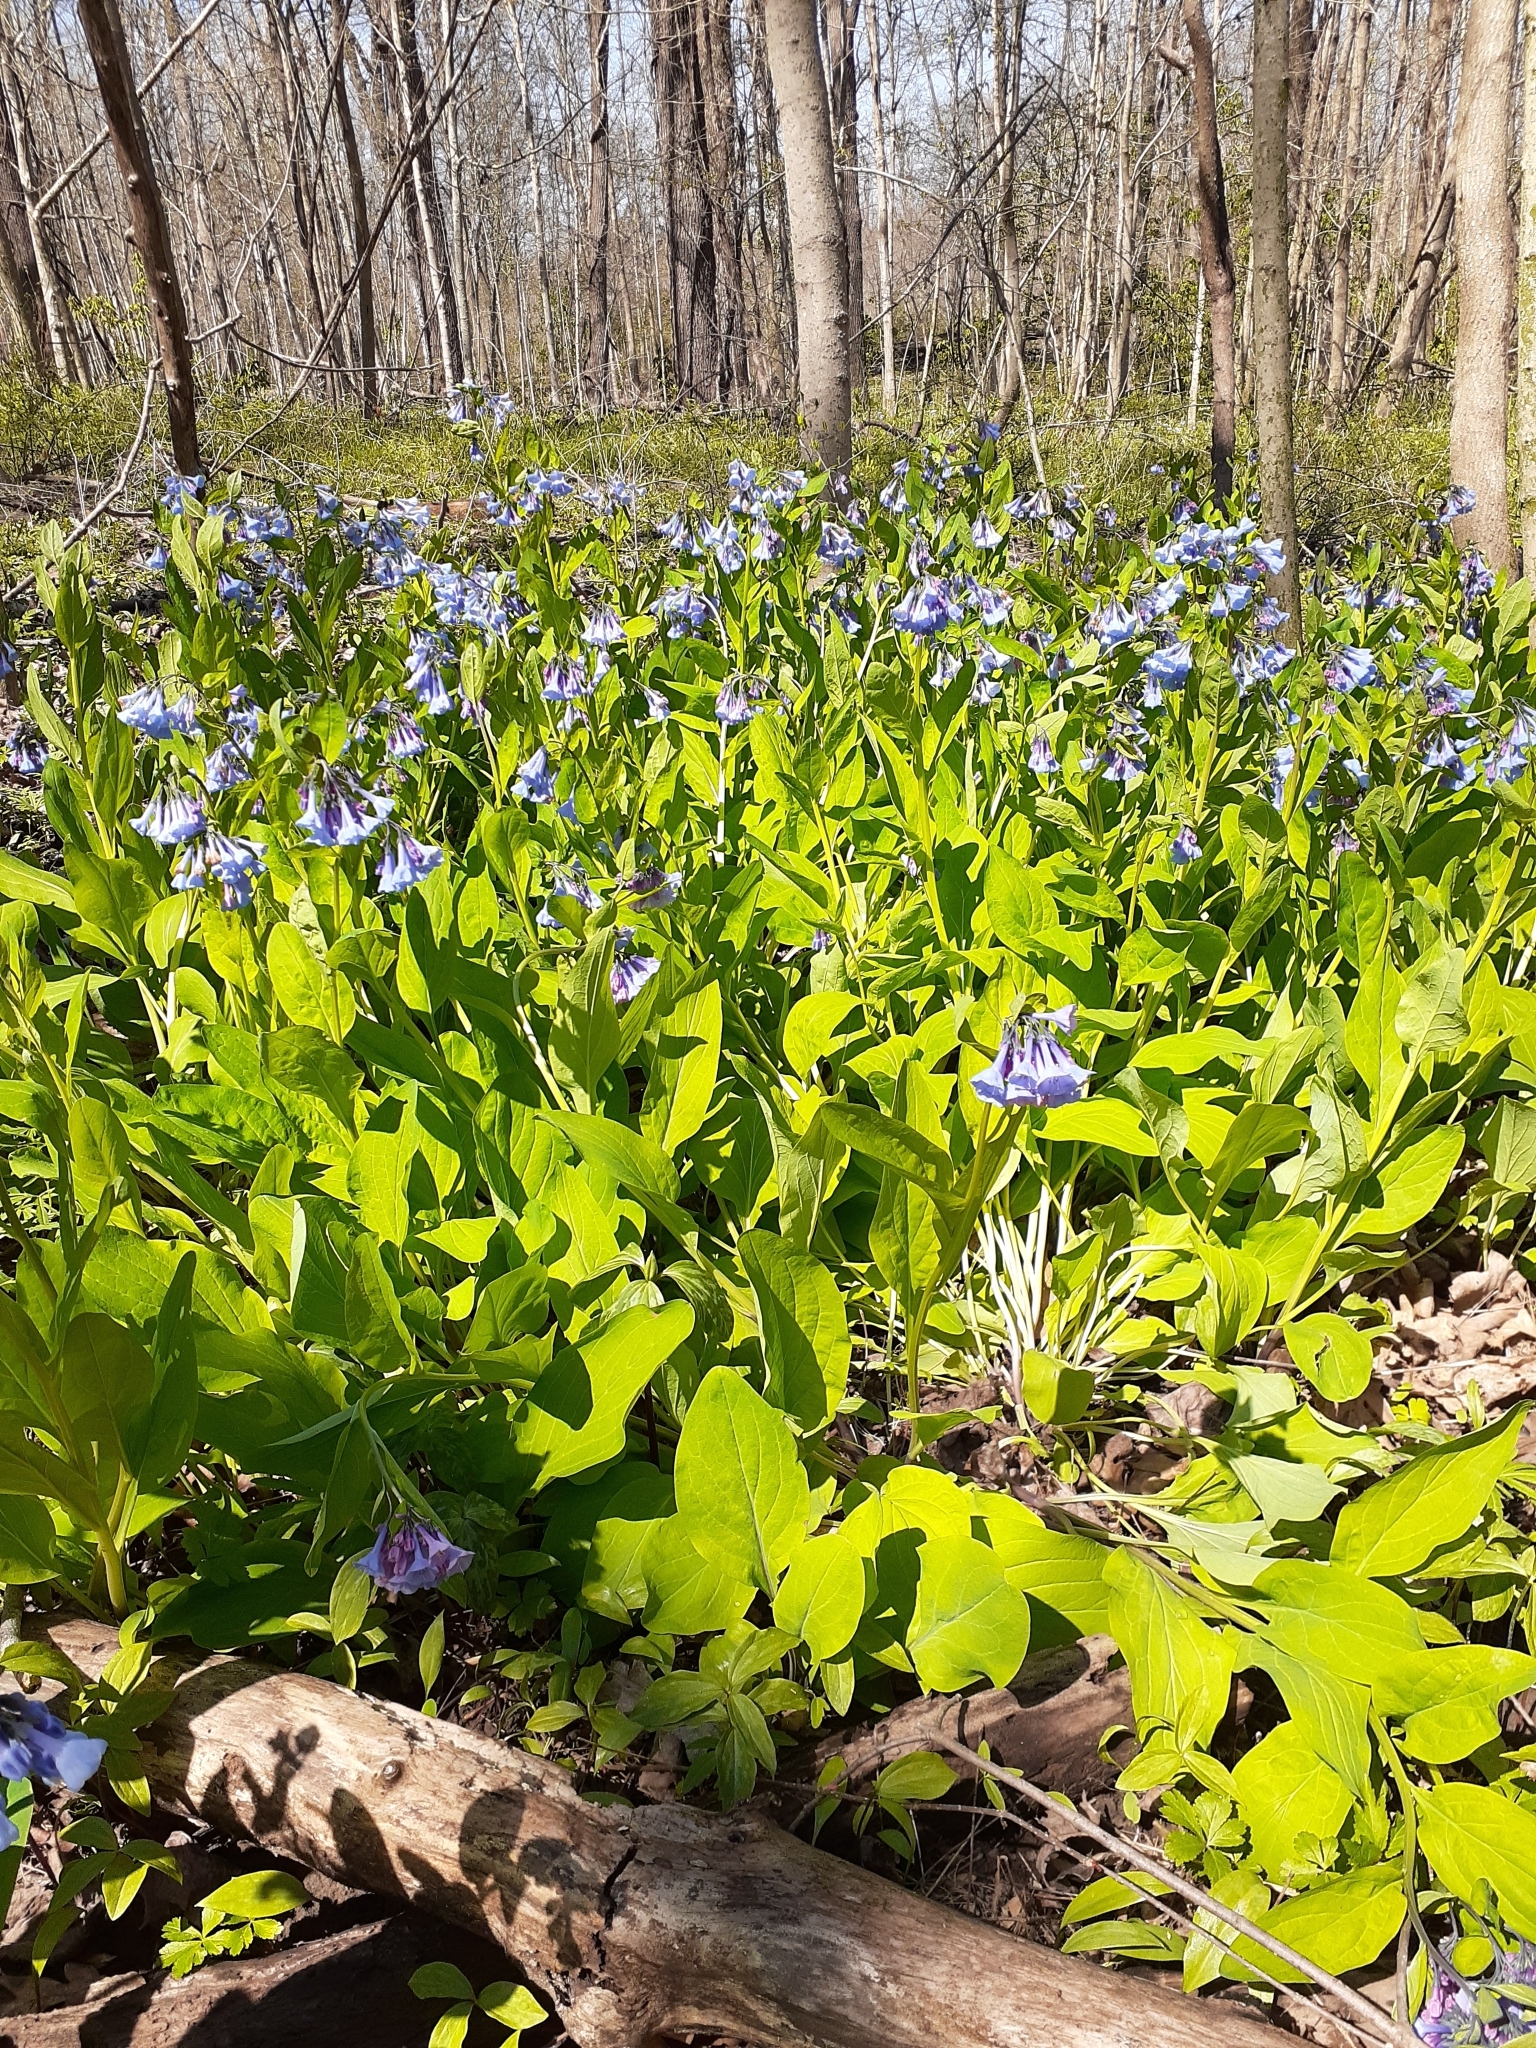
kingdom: Plantae
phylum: Tracheophyta
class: Magnoliopsida
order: Boraginales
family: Boraginaceae
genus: Mertensia
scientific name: Mertensia virginica
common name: Virginia bluebells
